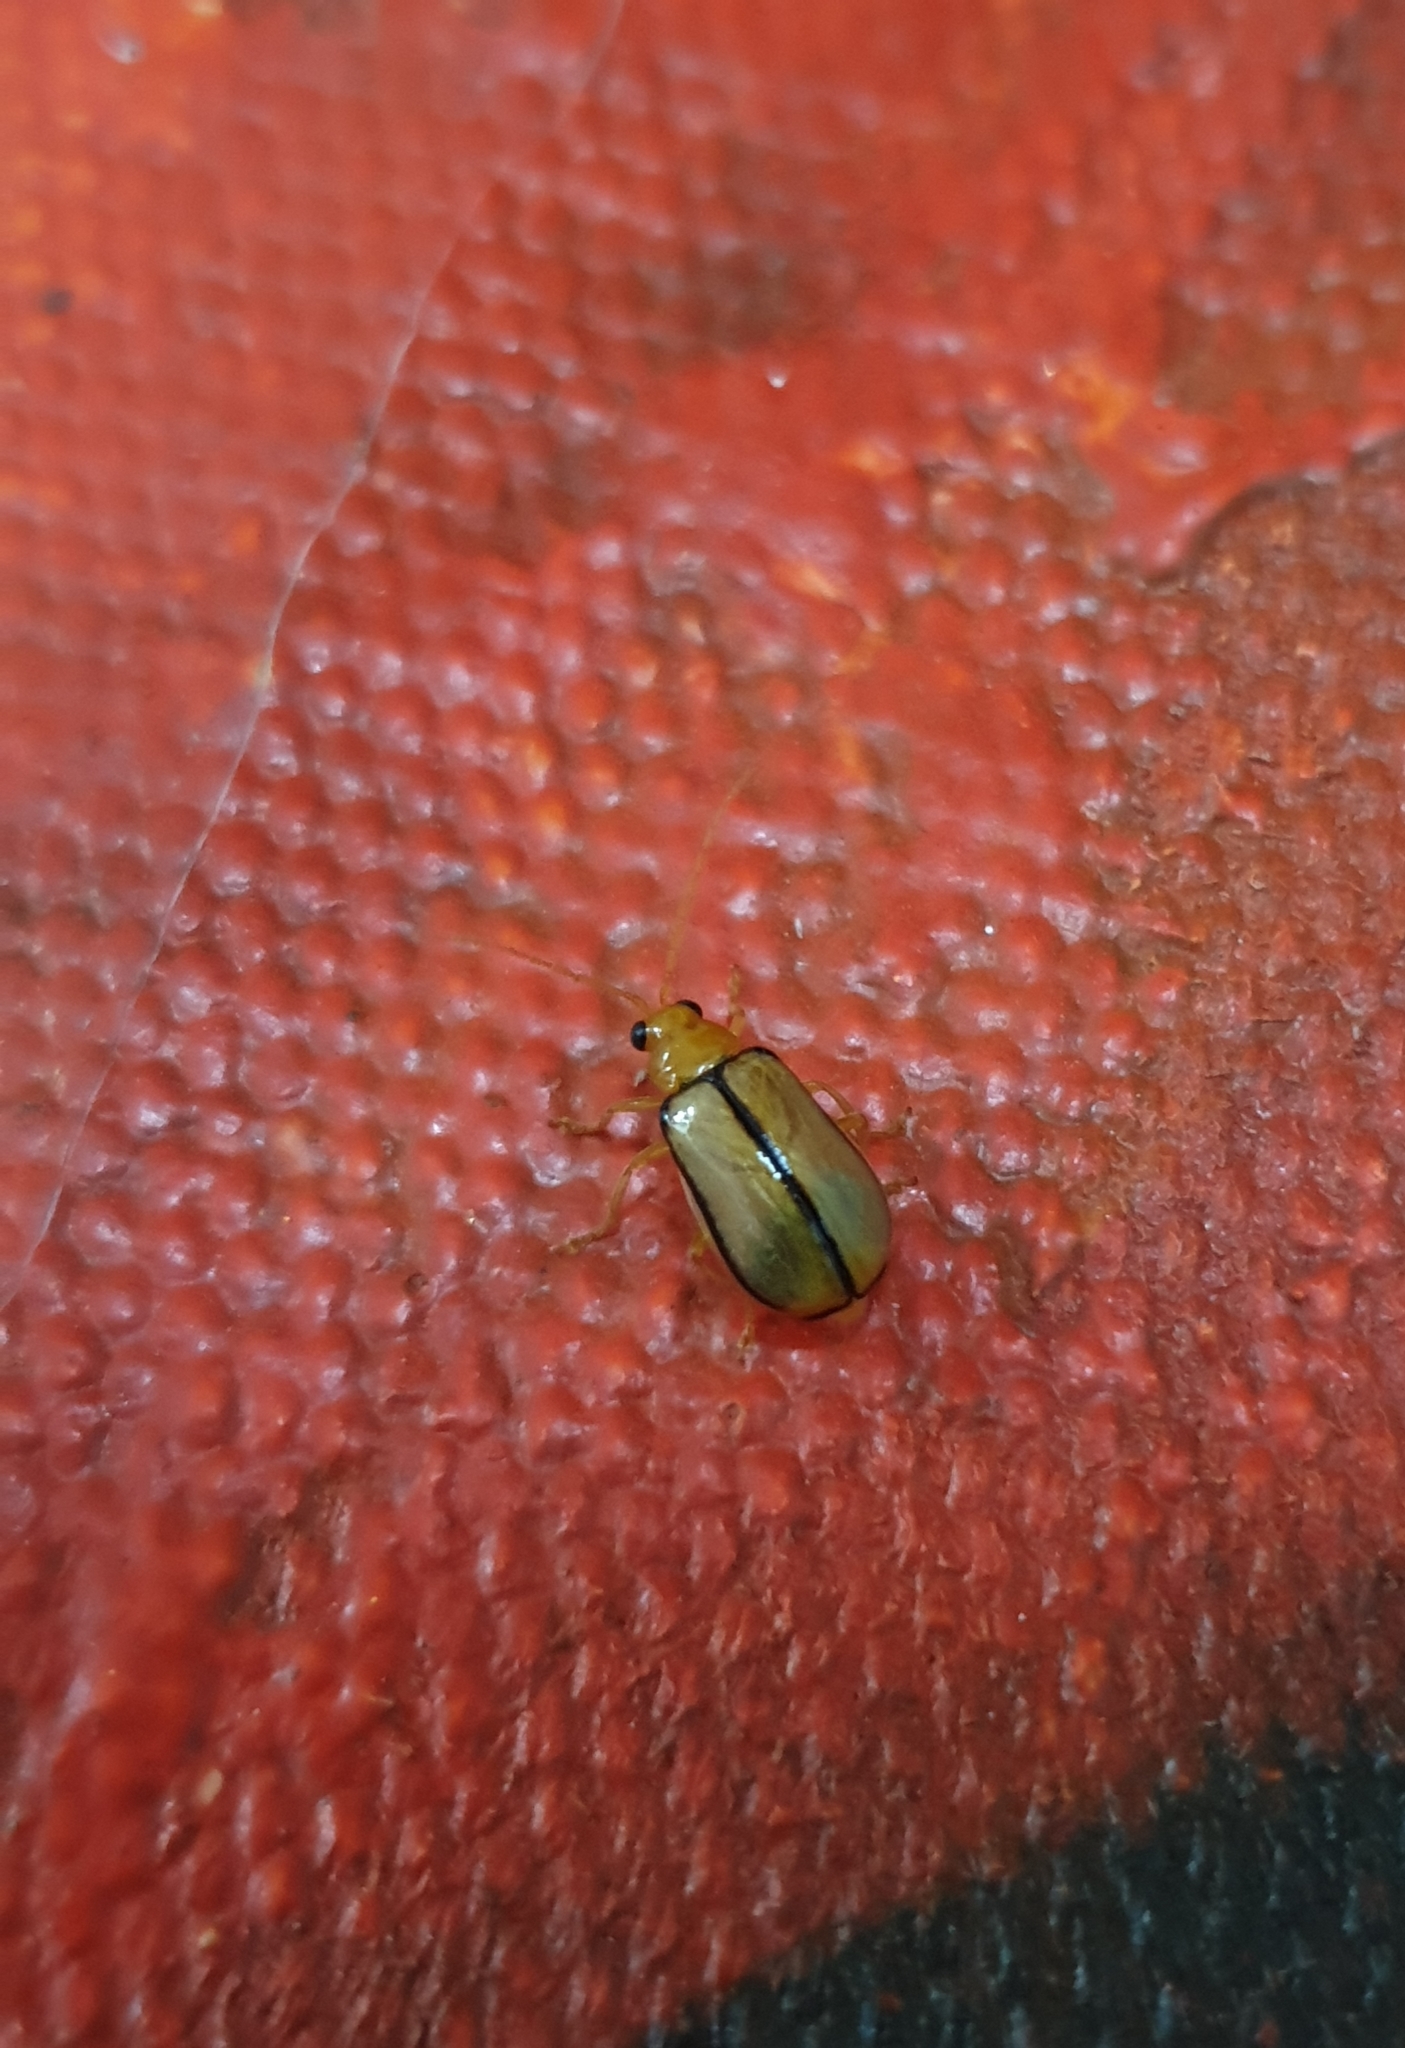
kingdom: Animalia
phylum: Arthropoda
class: Insecta
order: Coleoptera
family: Chrysomelidae
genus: Aulacophora
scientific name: Aulacophora
